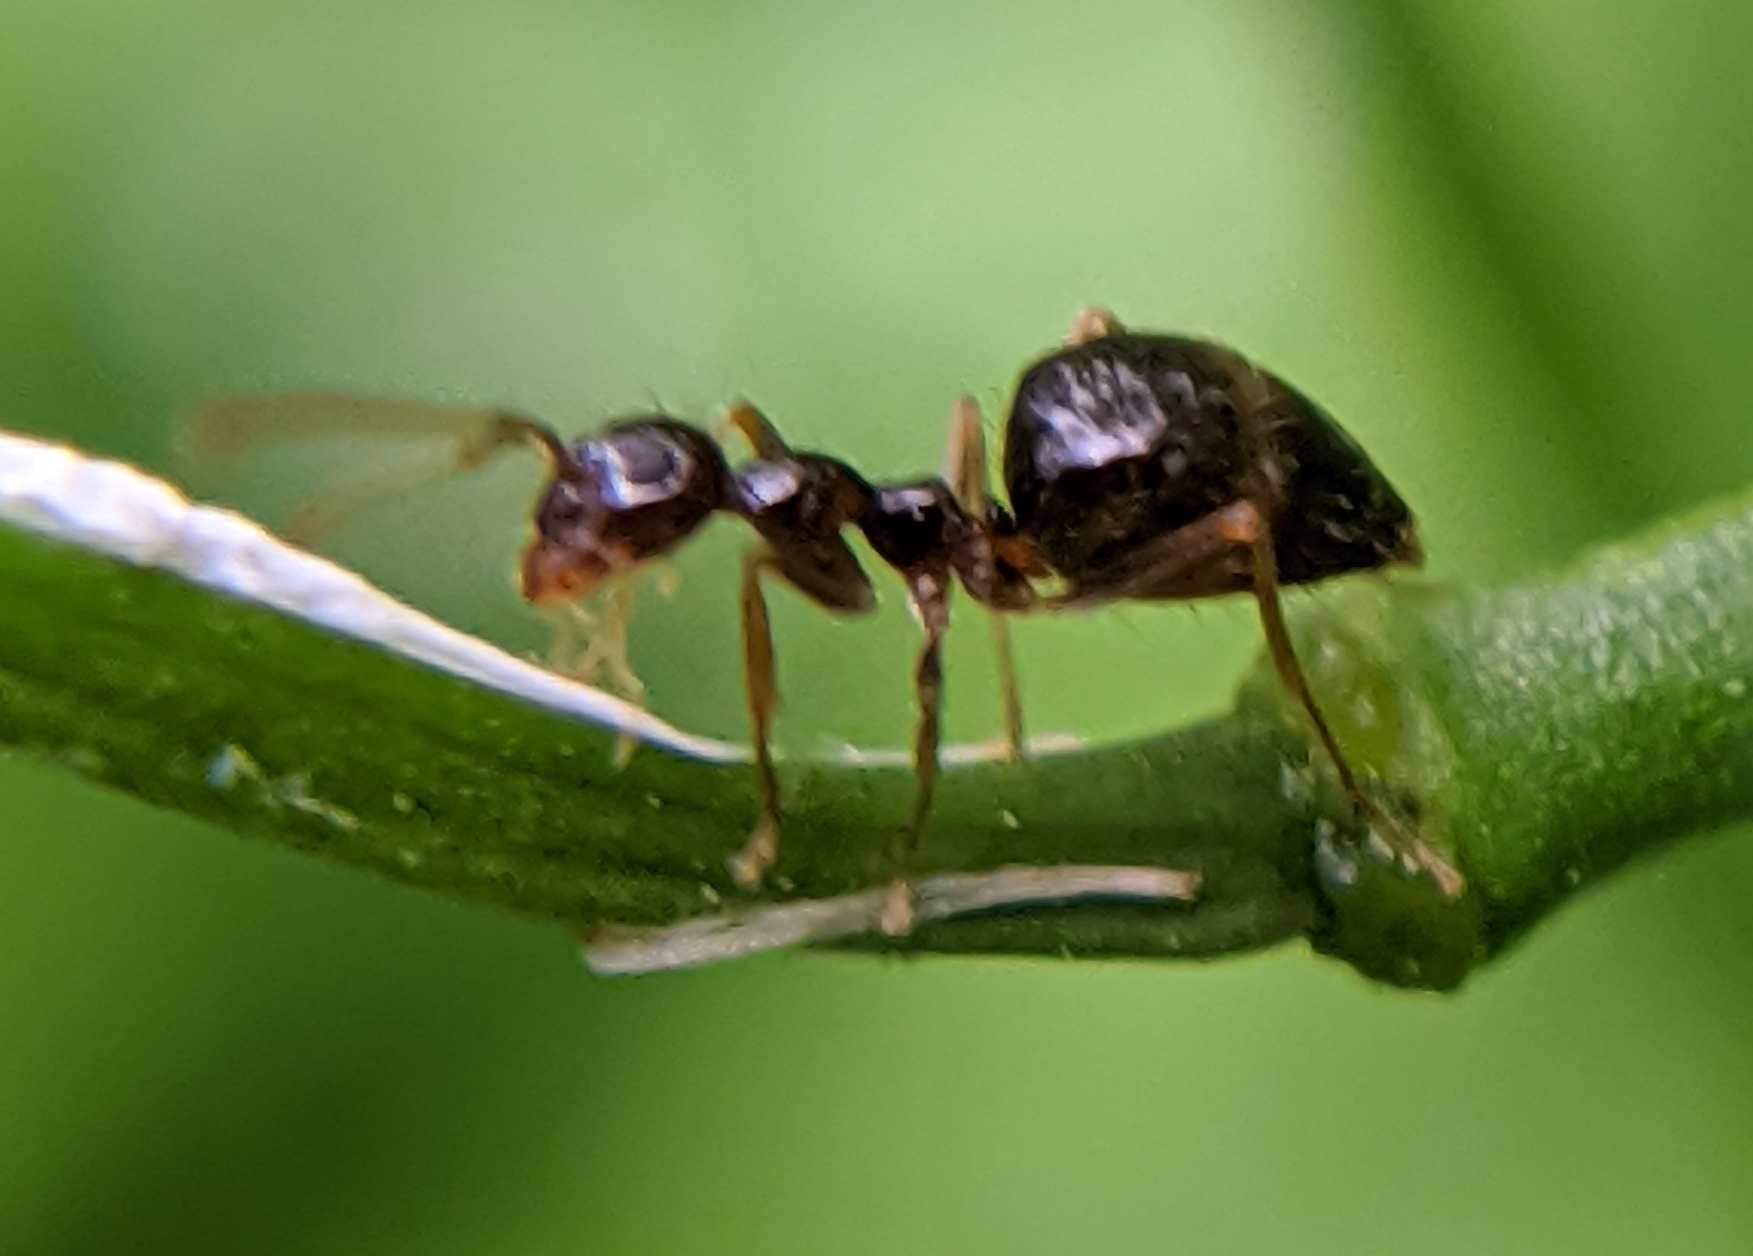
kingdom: Animalia
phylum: Arthropoda
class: Insecta
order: Hymenoptera
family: Formicidae
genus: Prenolepis
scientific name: Prenolepis imparis
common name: Small honey ant
